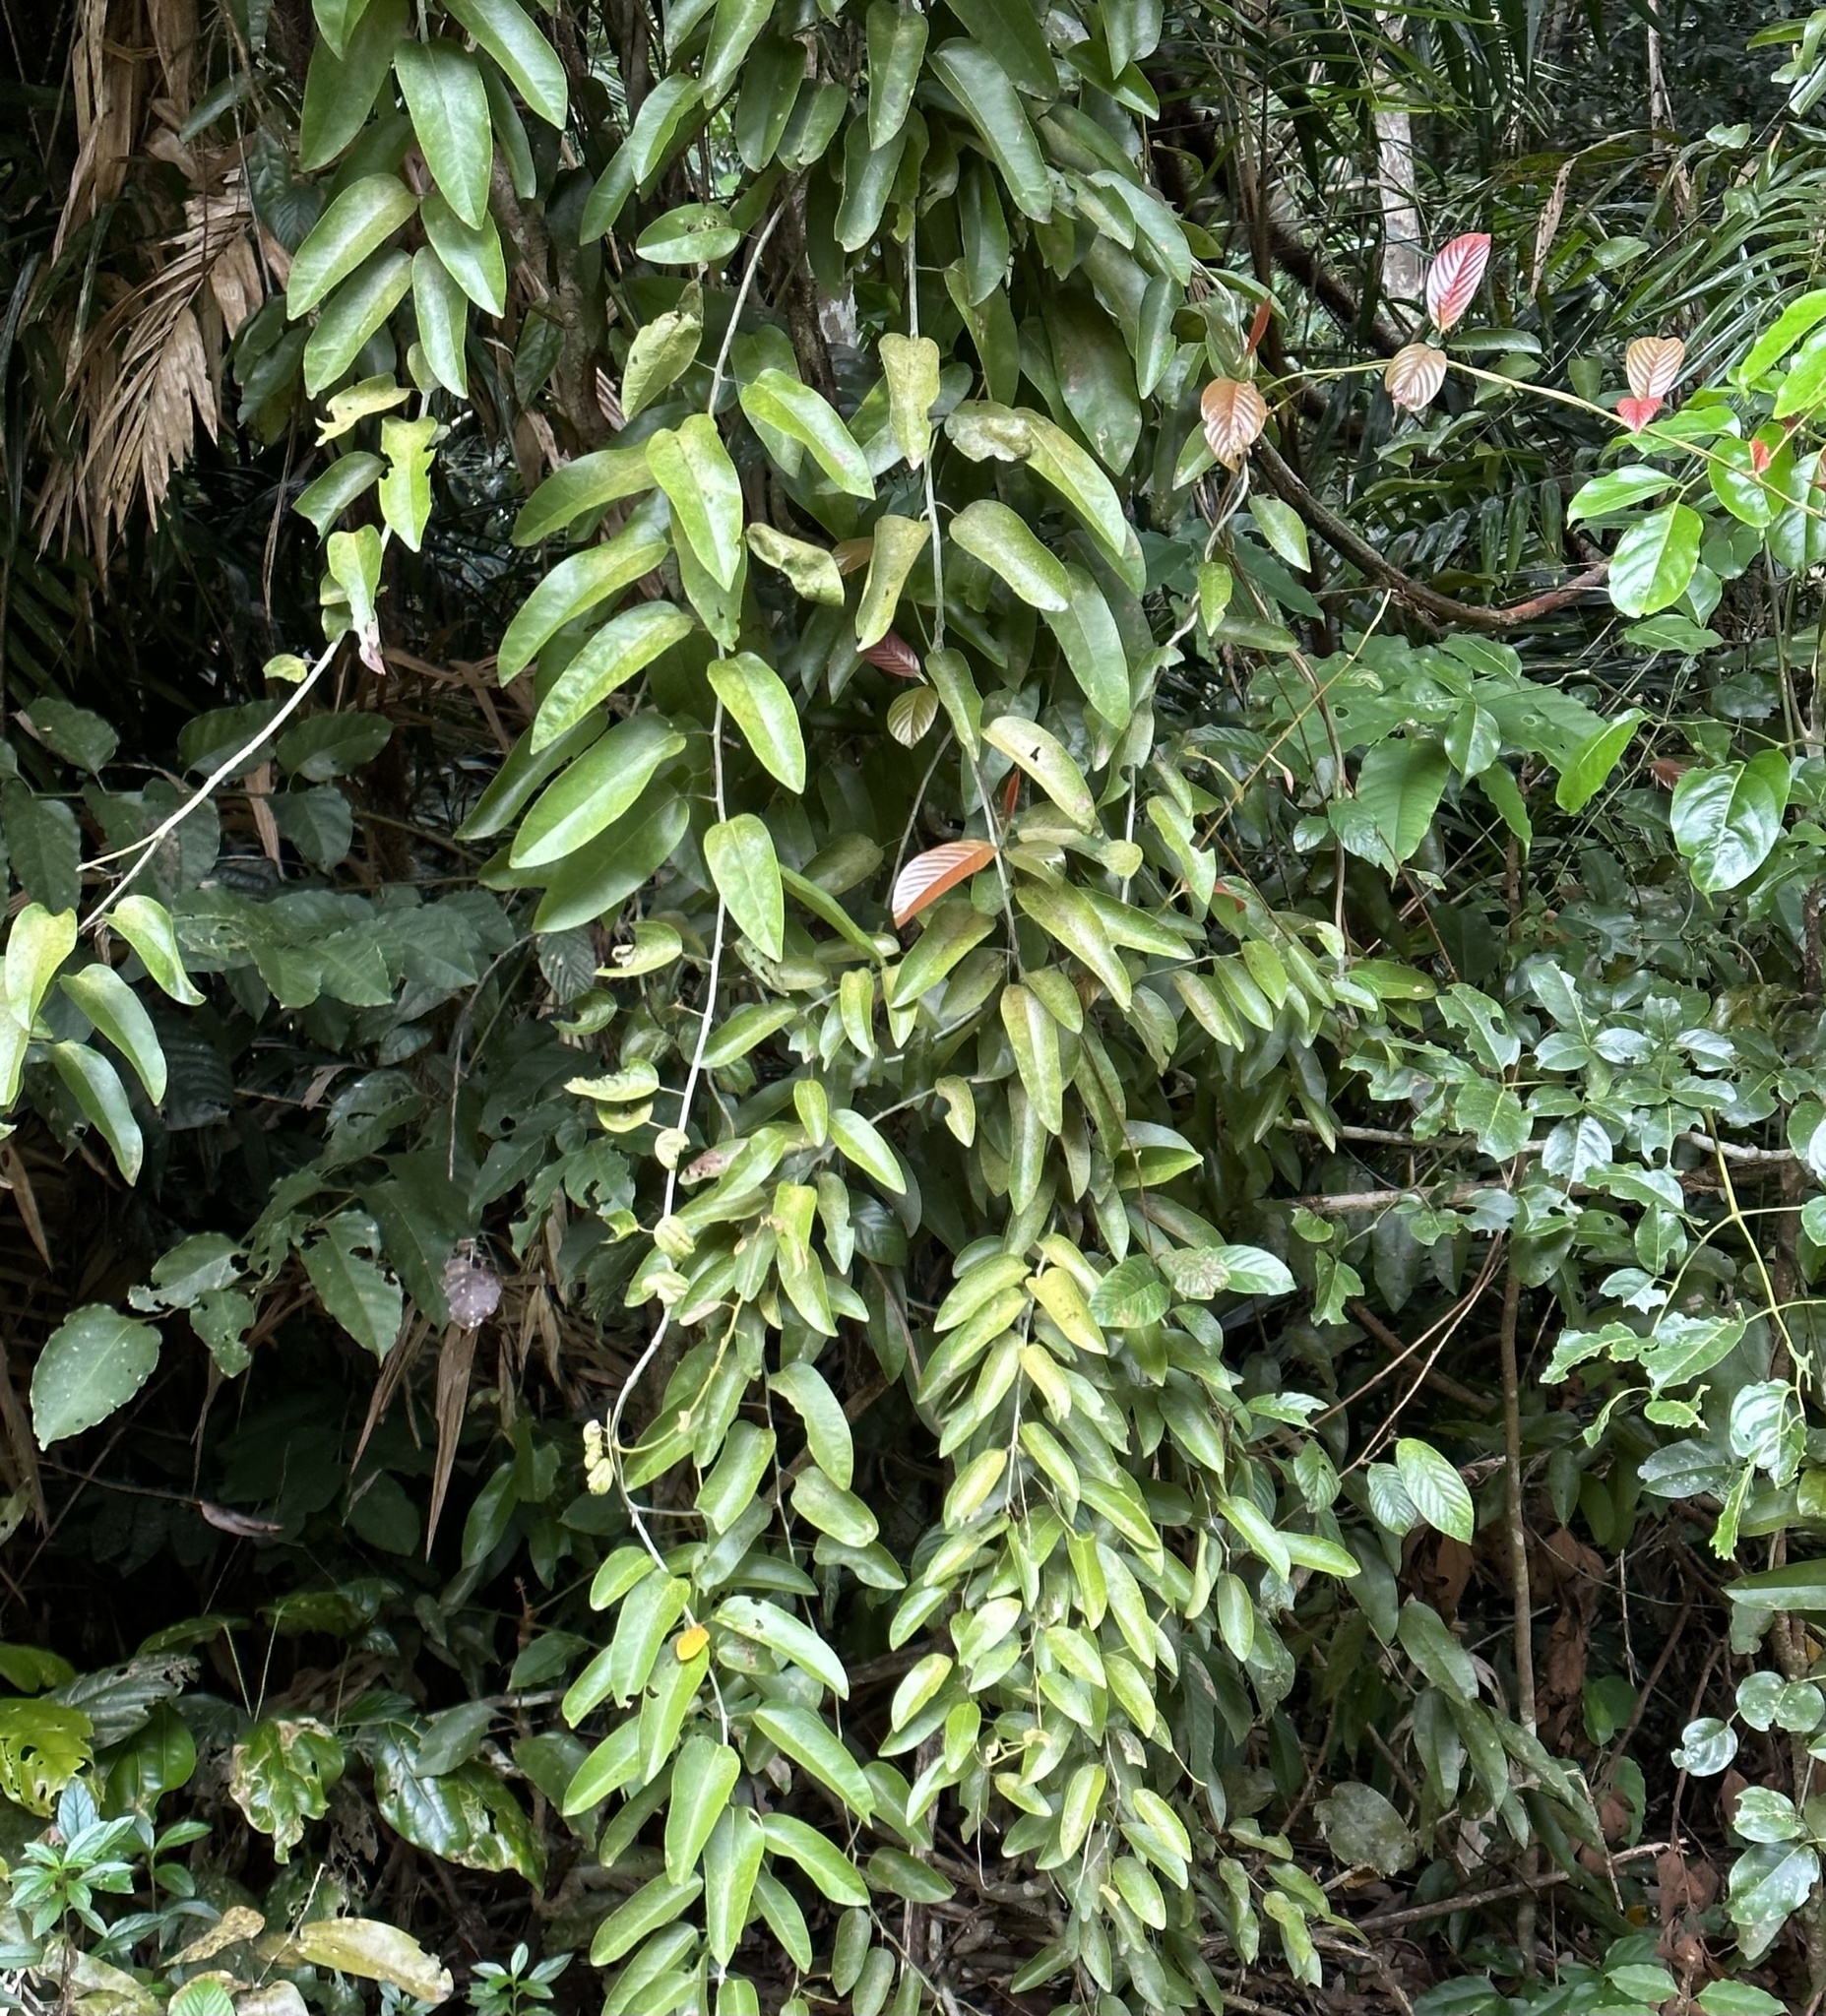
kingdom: Plantae
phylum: Tracheophyta
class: Magnoliopsida
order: Ranunculales
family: Menispermaceae
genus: Hypserpa
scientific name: Hypserpa laurina
